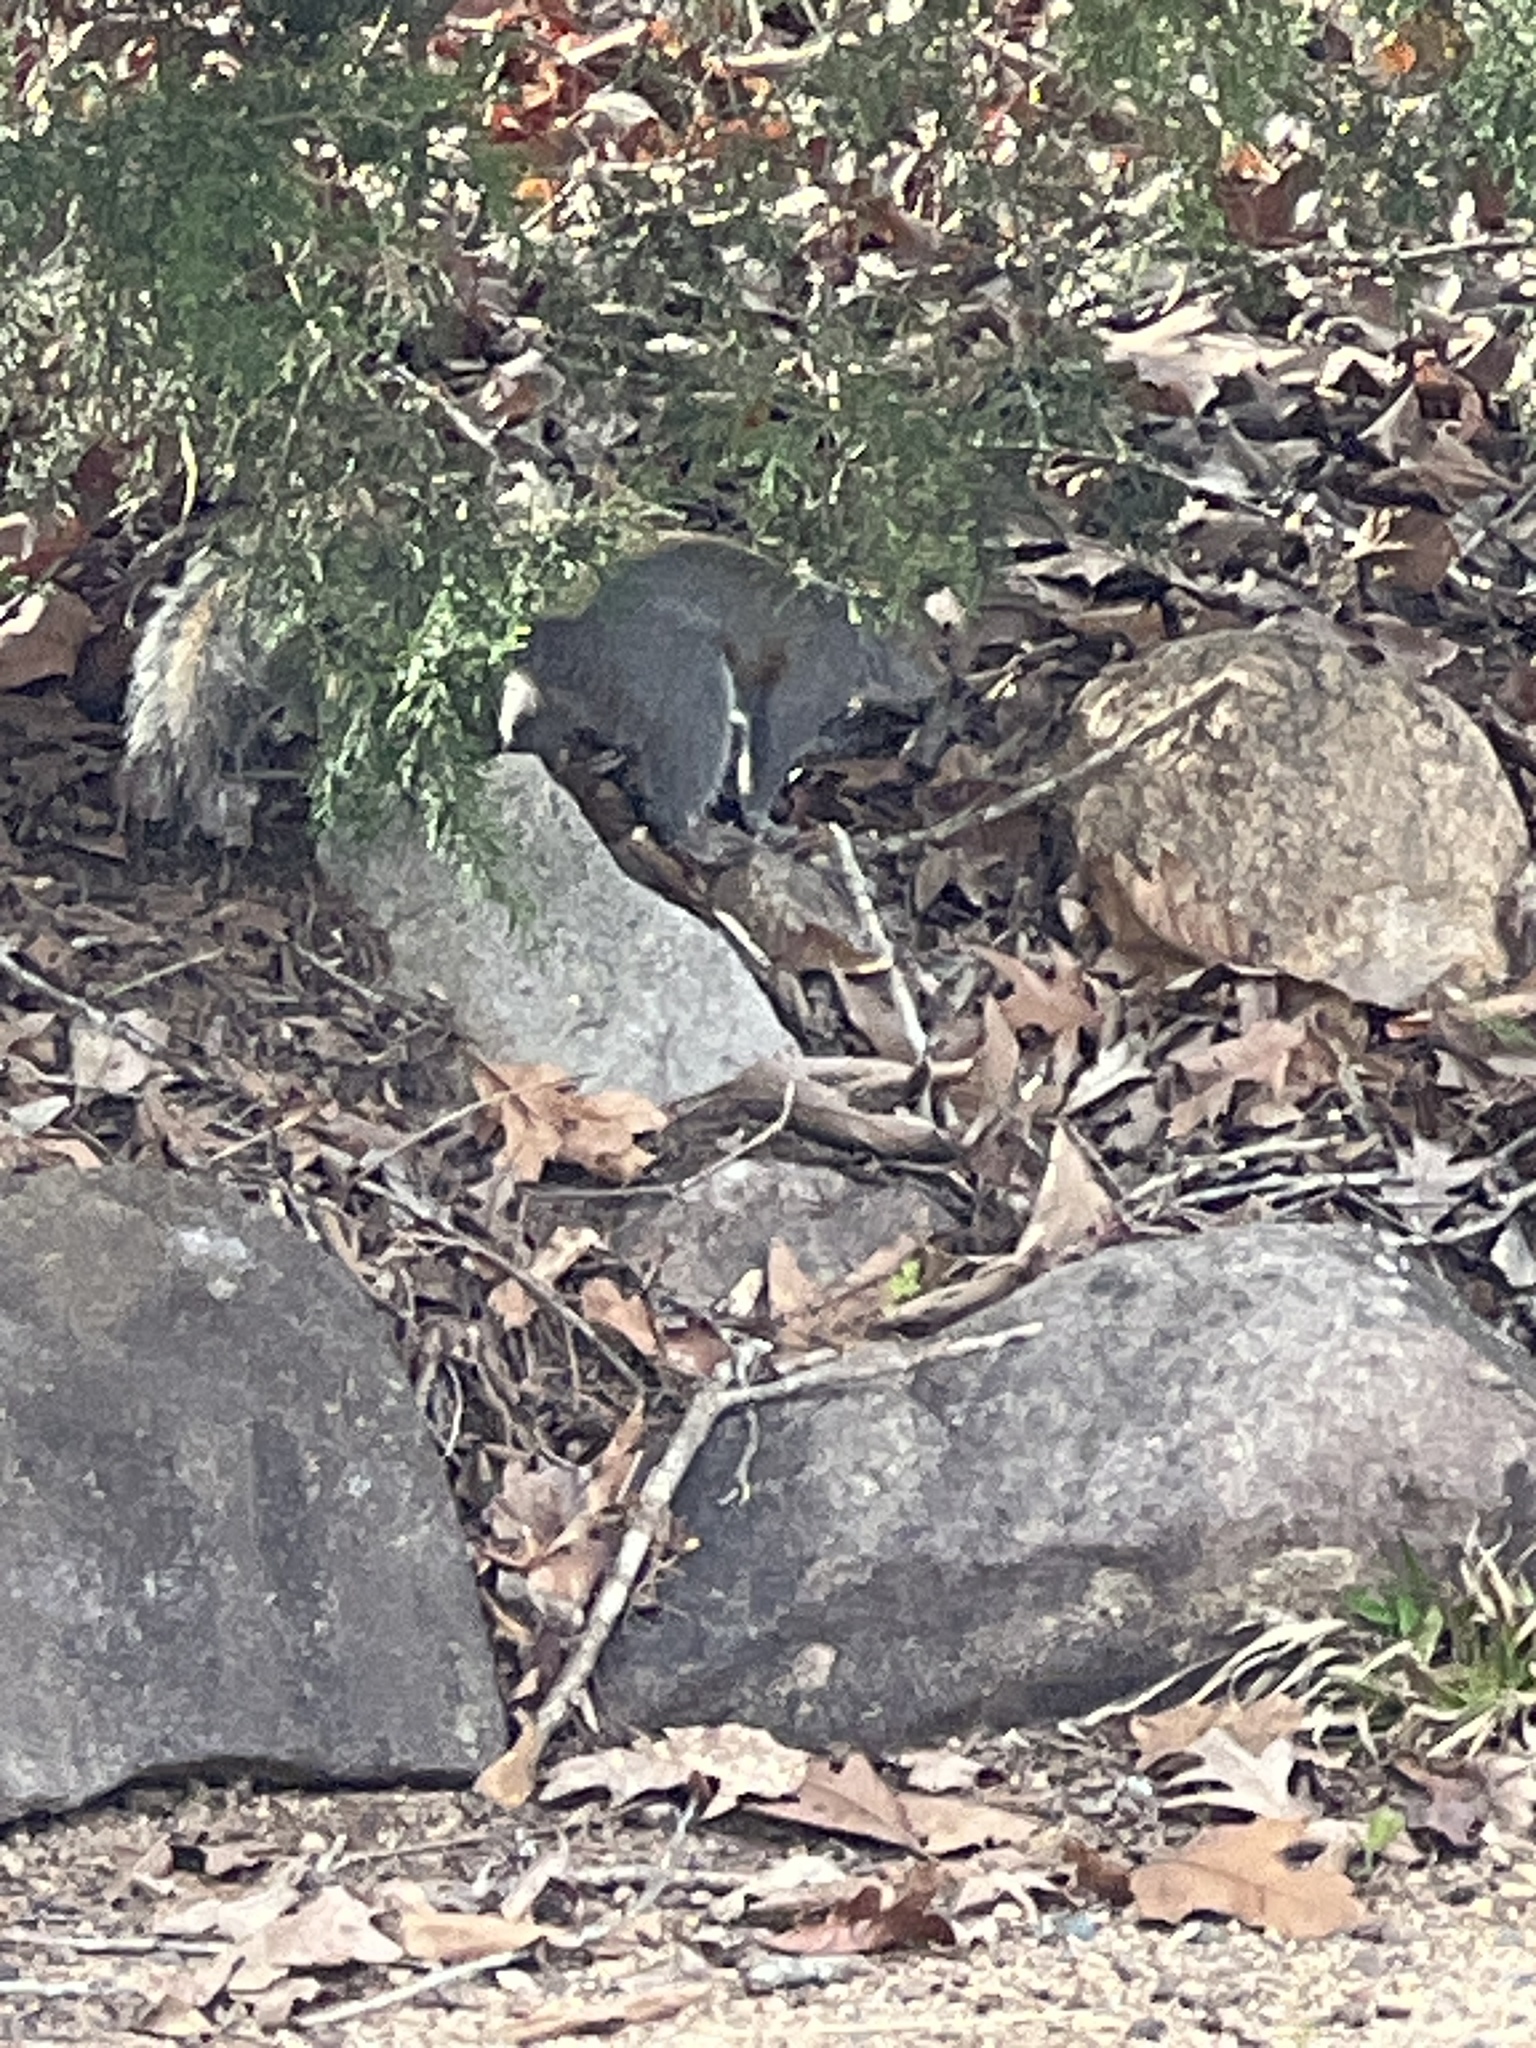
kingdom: Animalia
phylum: Chordata
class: Mammalia
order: Rodentia
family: Sciuridae
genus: Sciurus
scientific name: Sciurus carolinensis
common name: Eastern gray squirrel
